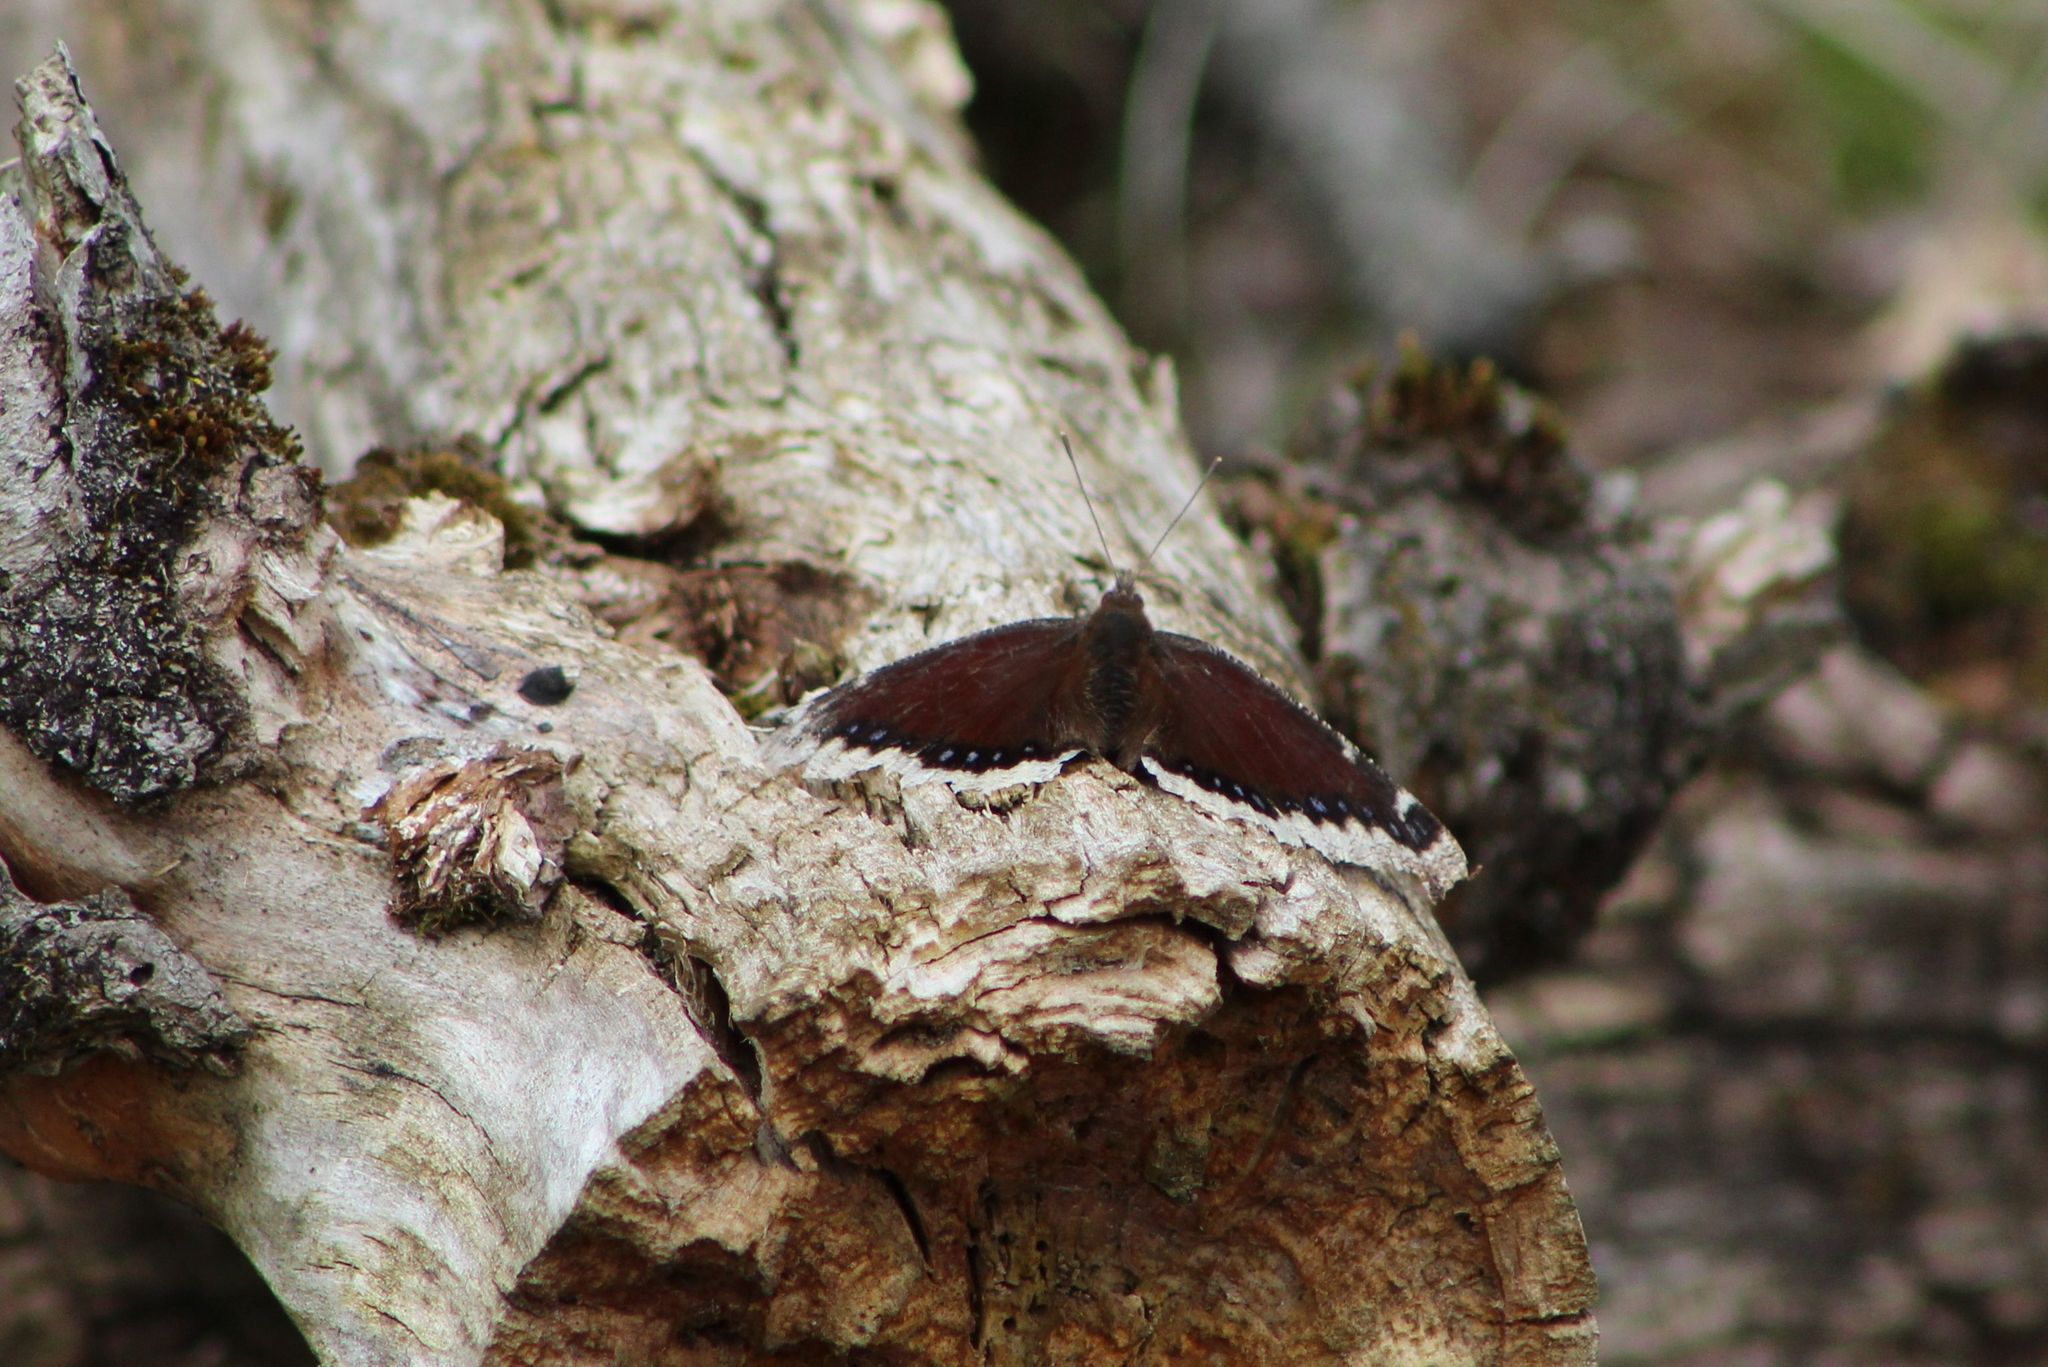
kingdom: Animalia
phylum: Arthropoda
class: Insecta
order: Lepidoptera
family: Nymphalidae
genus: Nymphalis
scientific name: Nymphalis antiopa
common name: Camberwell beauty
